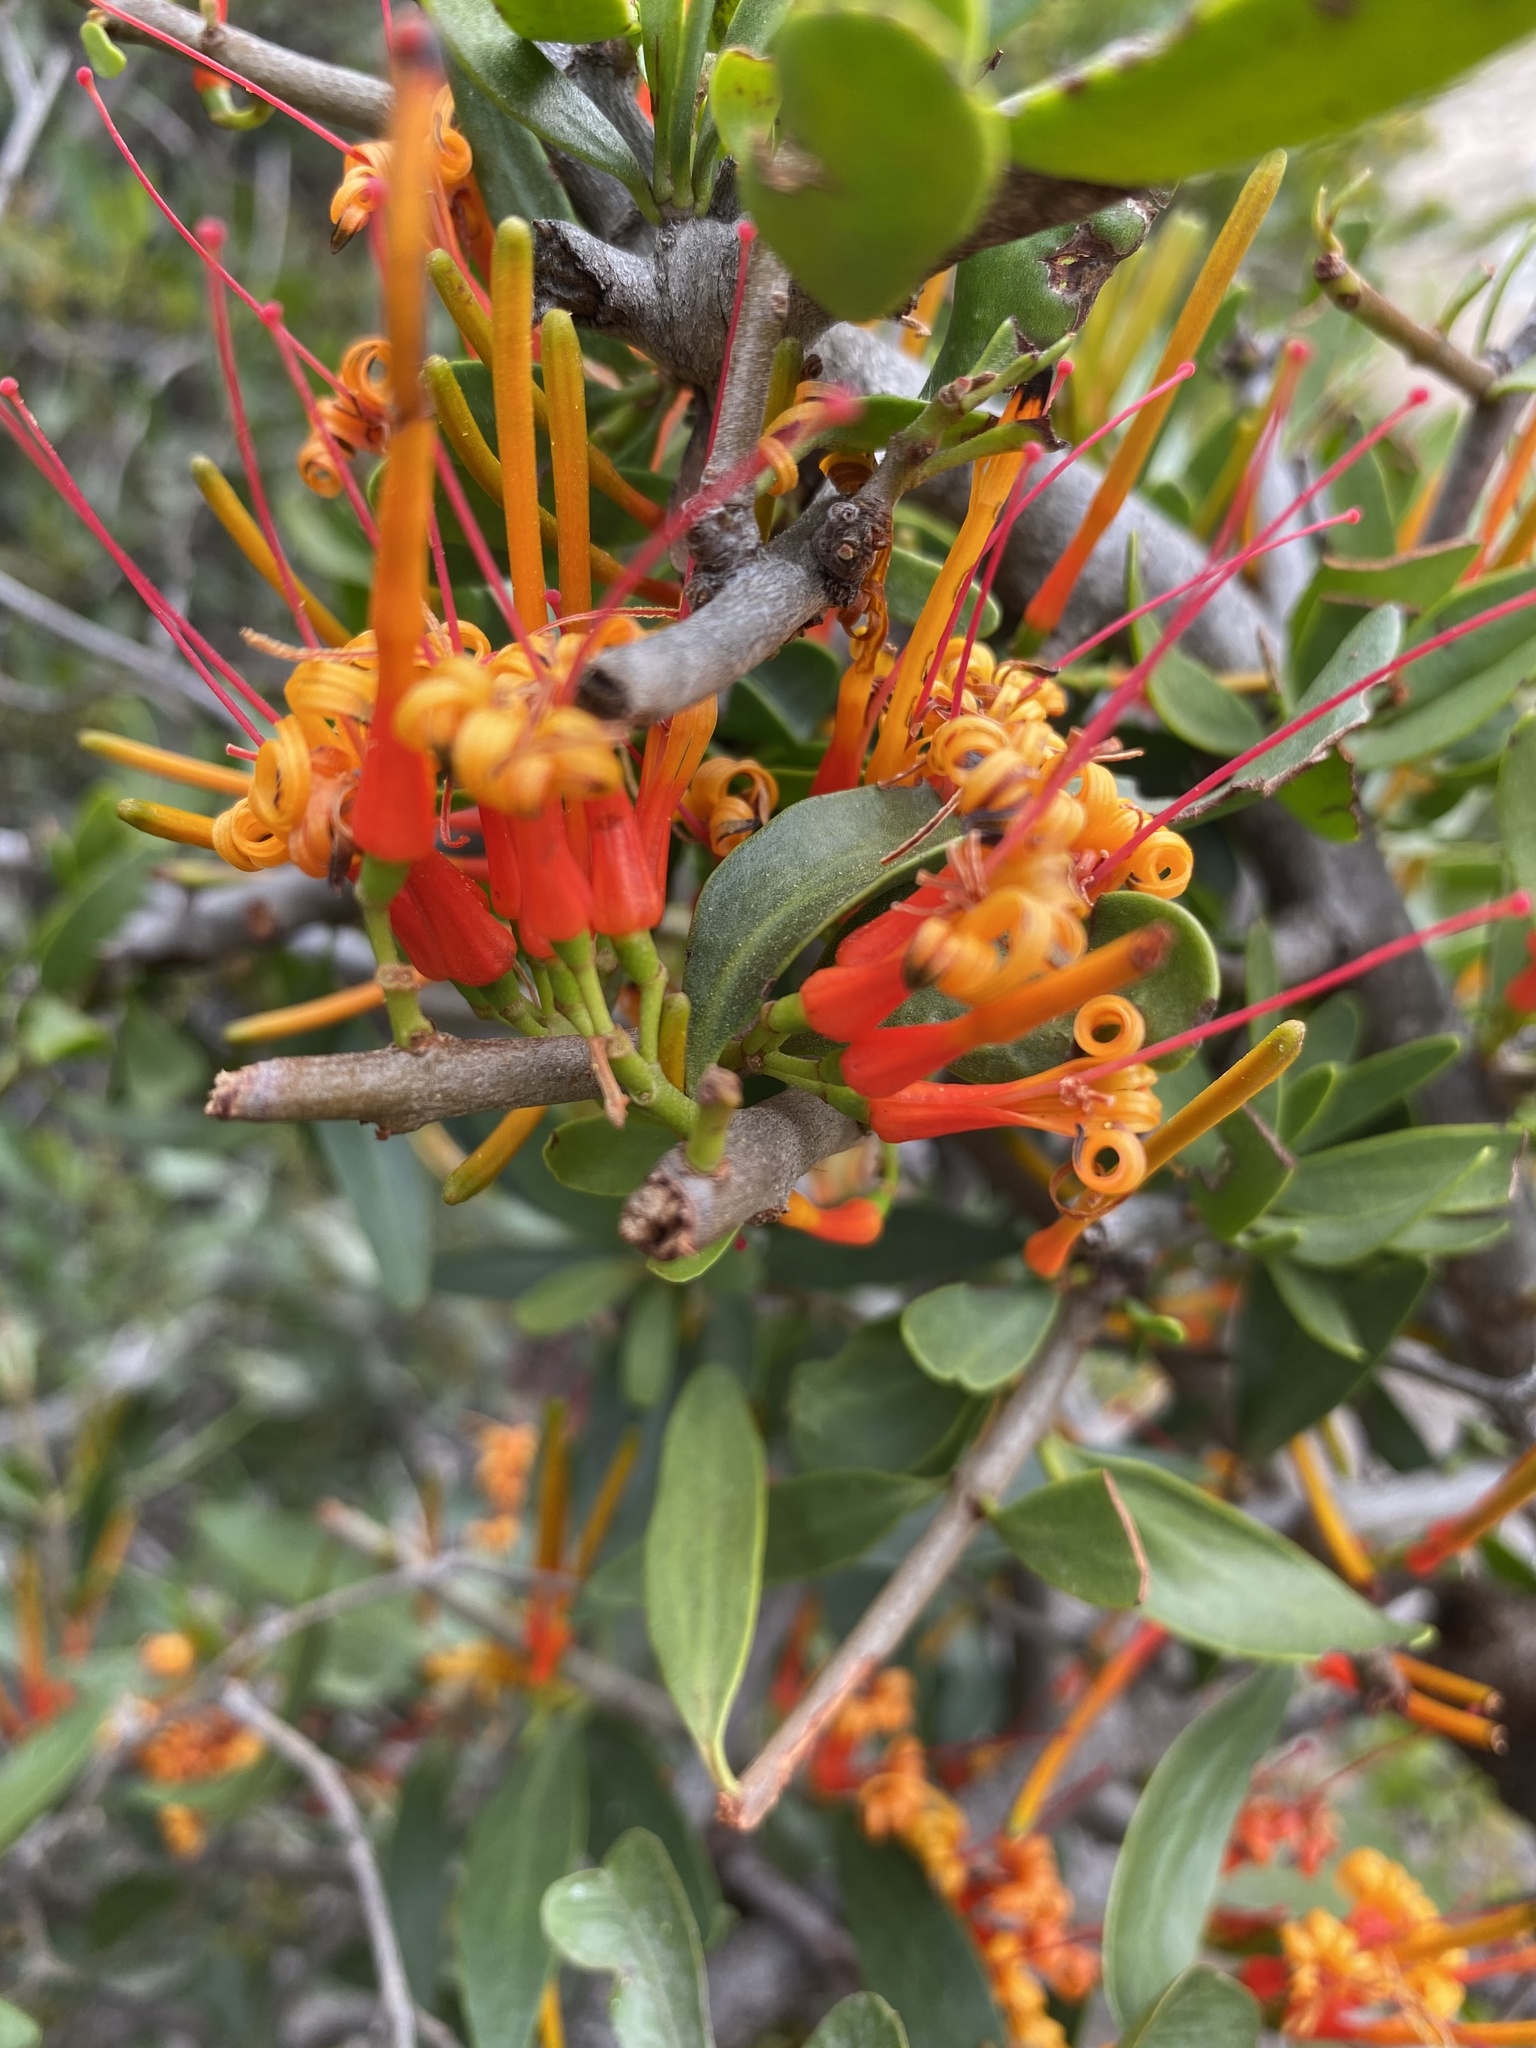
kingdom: Plantae
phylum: Tracheophyta
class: Magnoliopsida
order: Santalales
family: Loranthaceae
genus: Moquiniella
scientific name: Moquiniella rubra
